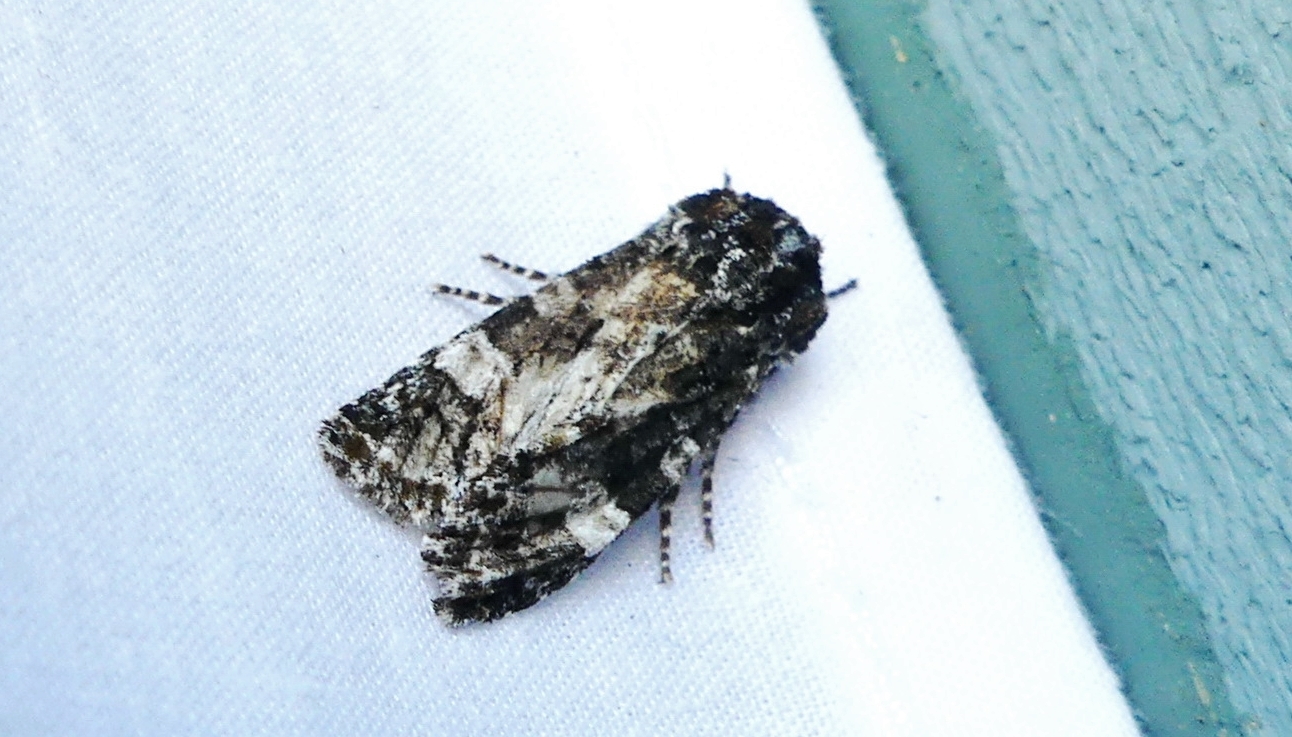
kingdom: Animalia
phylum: Arthropoda
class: Insecta
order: Lepidoptera
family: Noctuidae
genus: Psaphida
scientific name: Psaphida grotei
